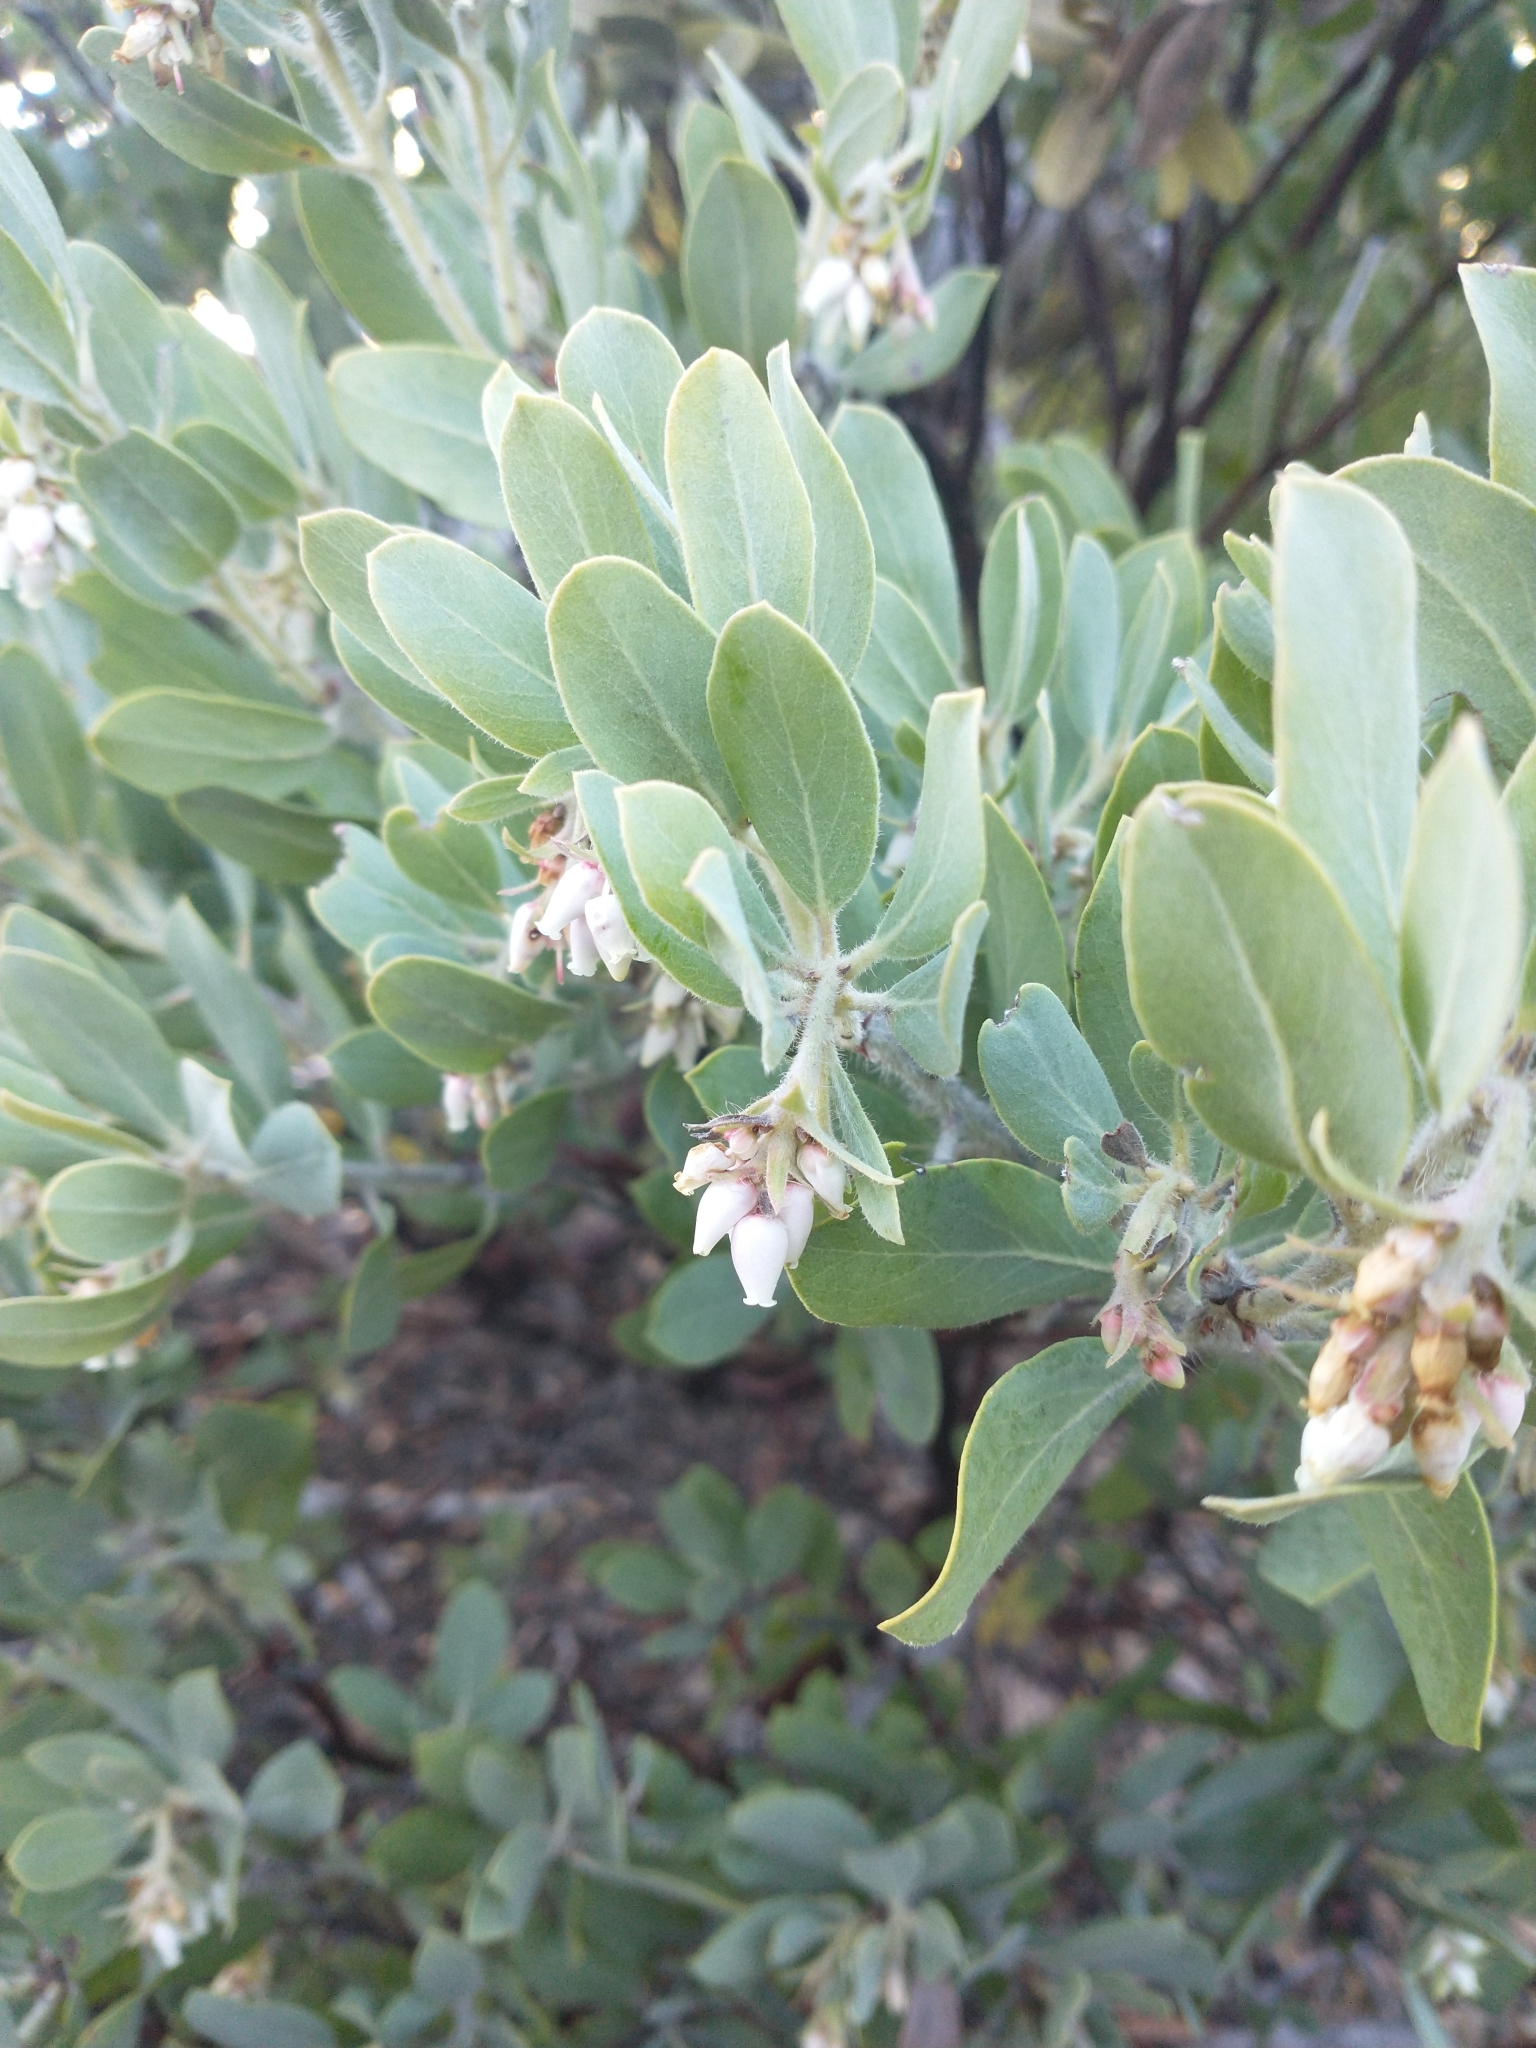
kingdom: Plantae
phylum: Tracheophyta
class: Magnoliopsida
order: Ericales
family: Ericaceae
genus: Arctostaphylos
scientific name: Arctostaphylos columbiana
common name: Bristly bearberry
